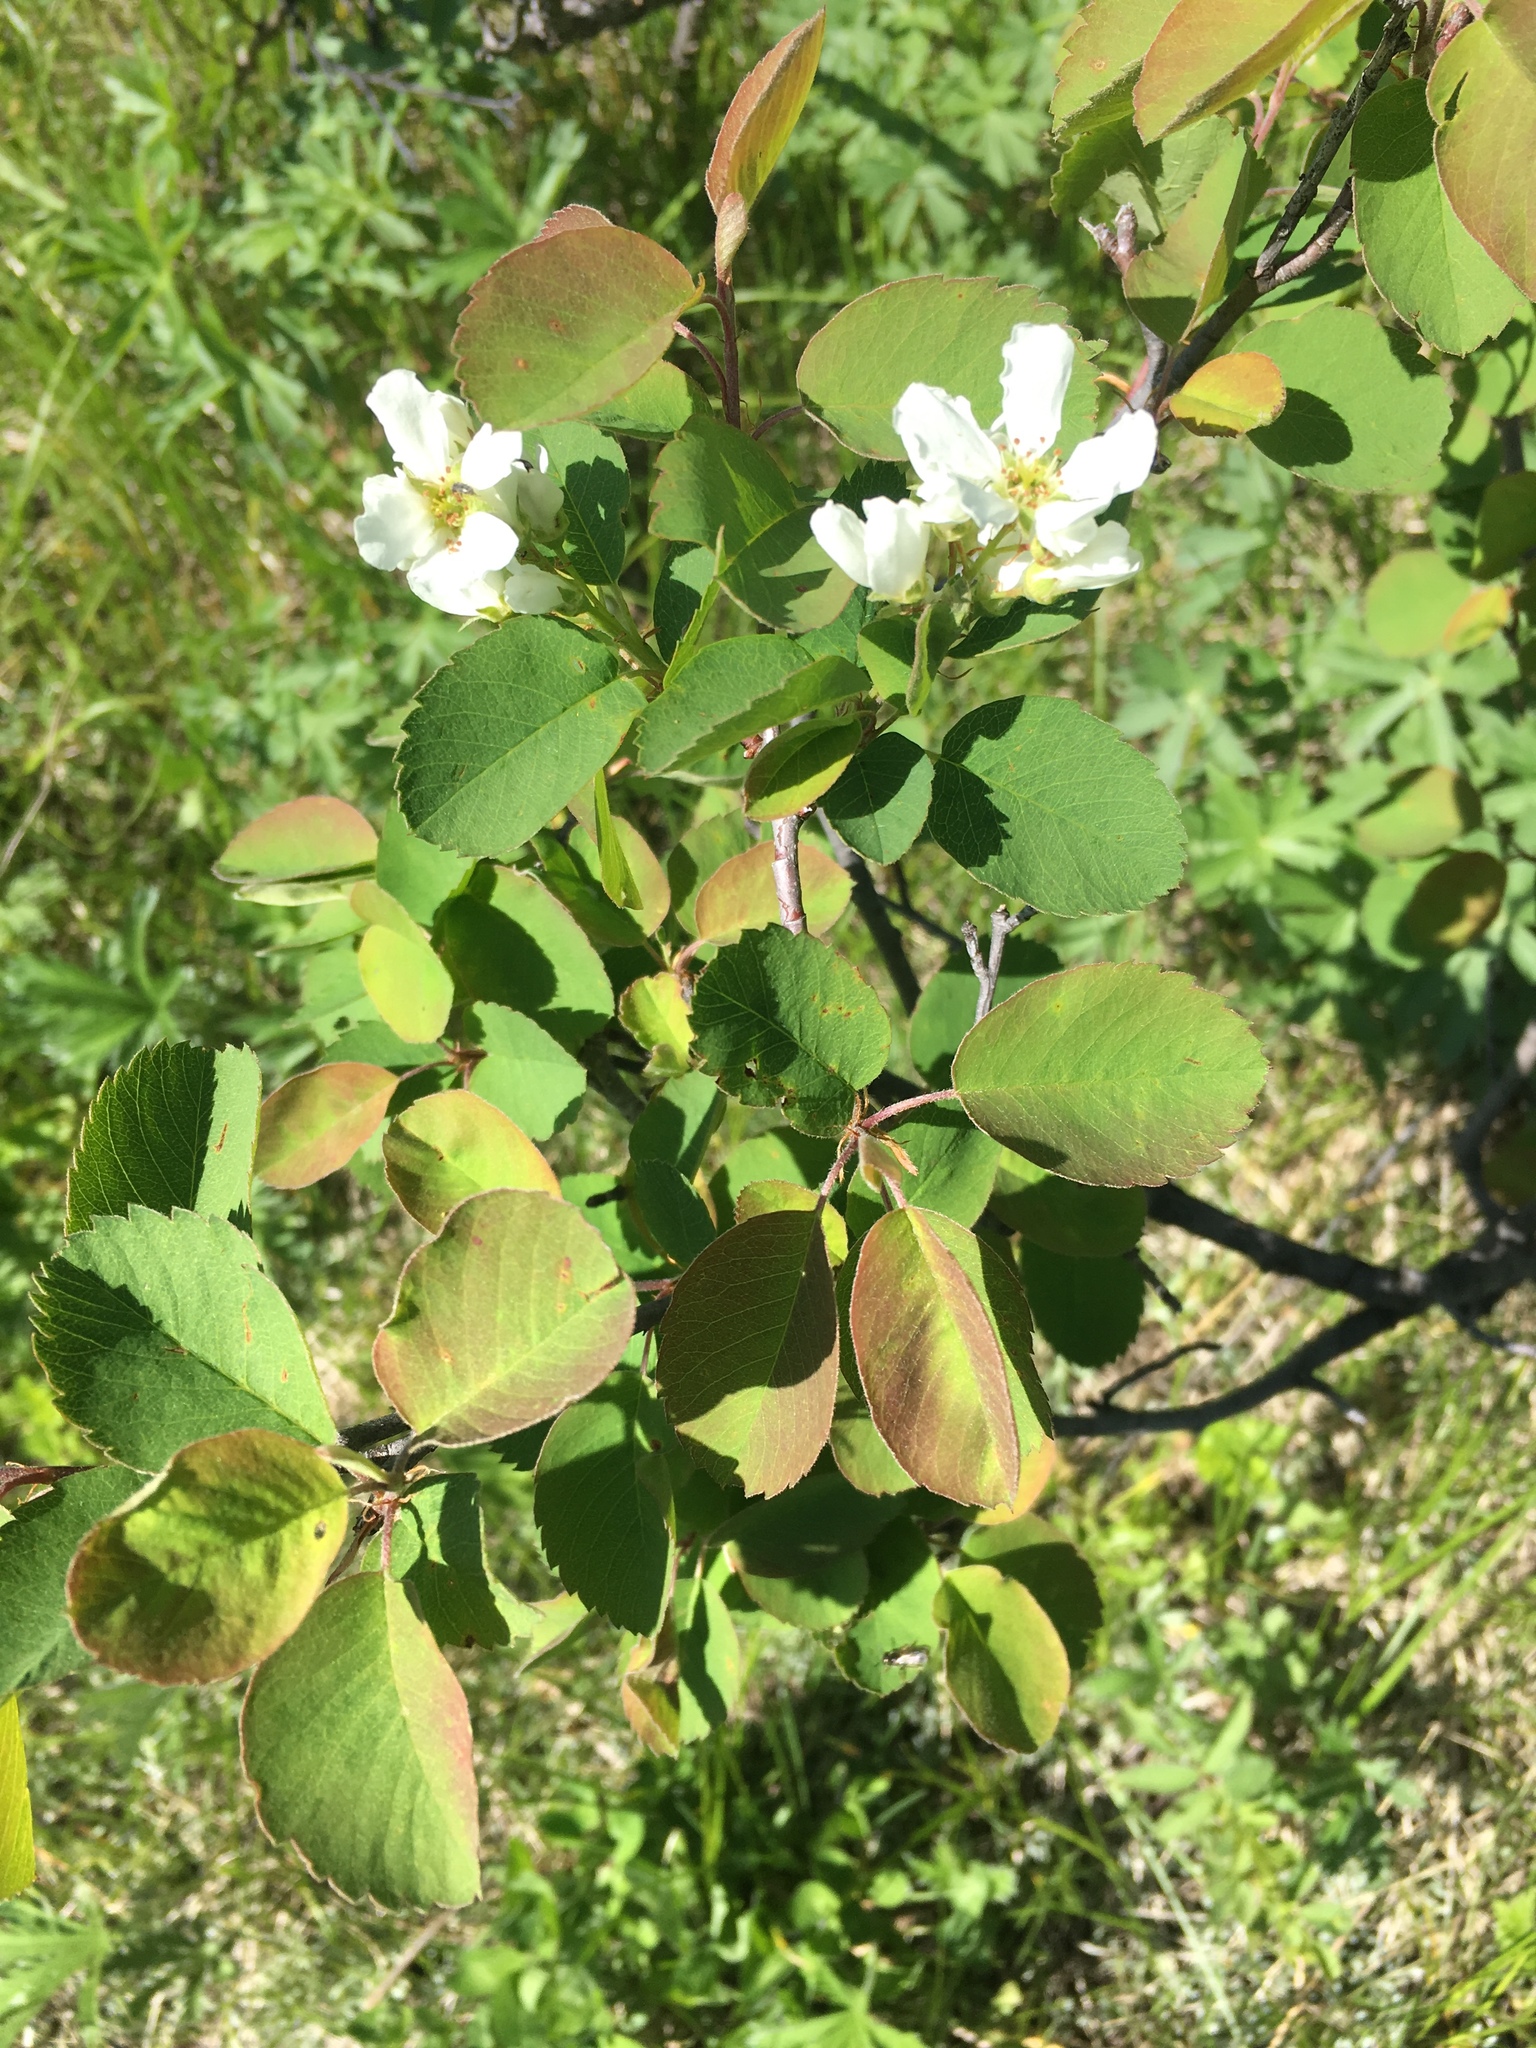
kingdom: Plantae
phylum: Tracheophyta
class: Magnoliopsida
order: Rosales
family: Rosaceae
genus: Amelanchier
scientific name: Amelanchier alnifolia
